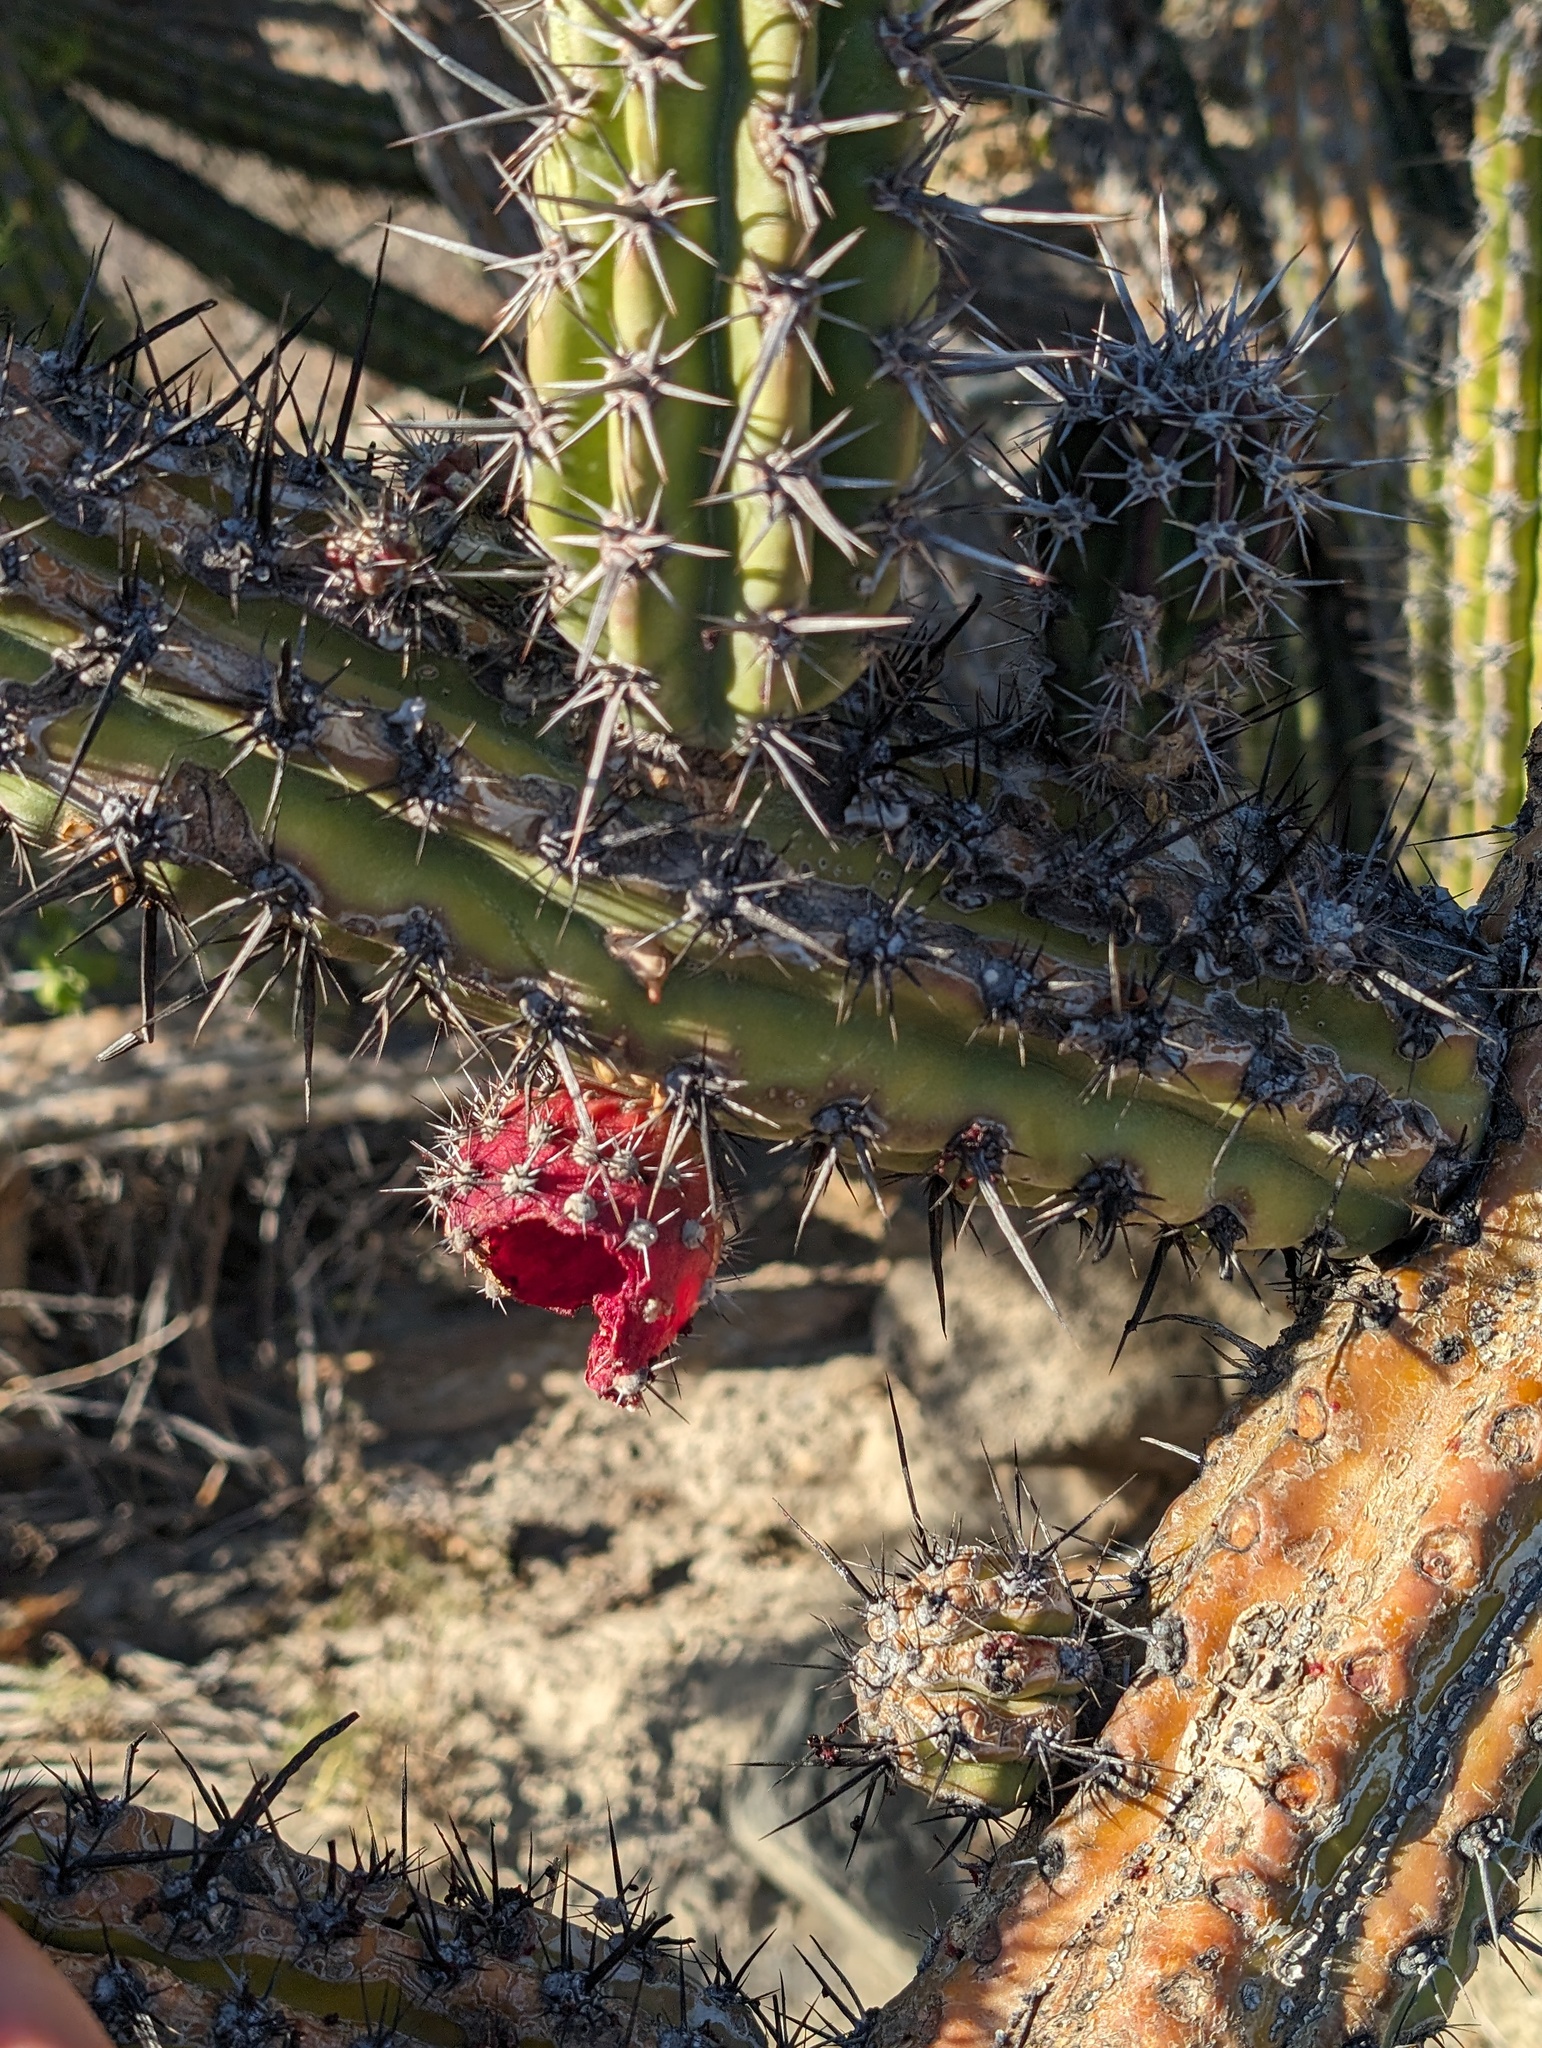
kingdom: Plantae
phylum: Tracheophyta
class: Magnoliopsida
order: Caryophyllales
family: Cactaceae
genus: Stenocereus
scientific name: Stenocereus gummosus
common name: Dagger cactus
